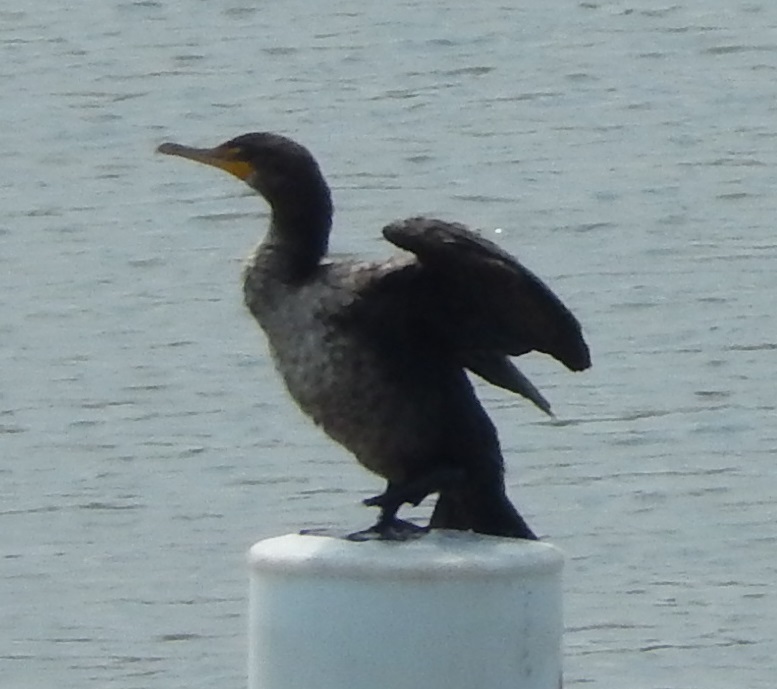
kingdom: Animalia
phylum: Chordata
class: Aves
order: Suliformes
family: Phalacrocoracidae
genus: Phalacrocorax
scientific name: Phalacrocorax auritus
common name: Double-crested cormorant
